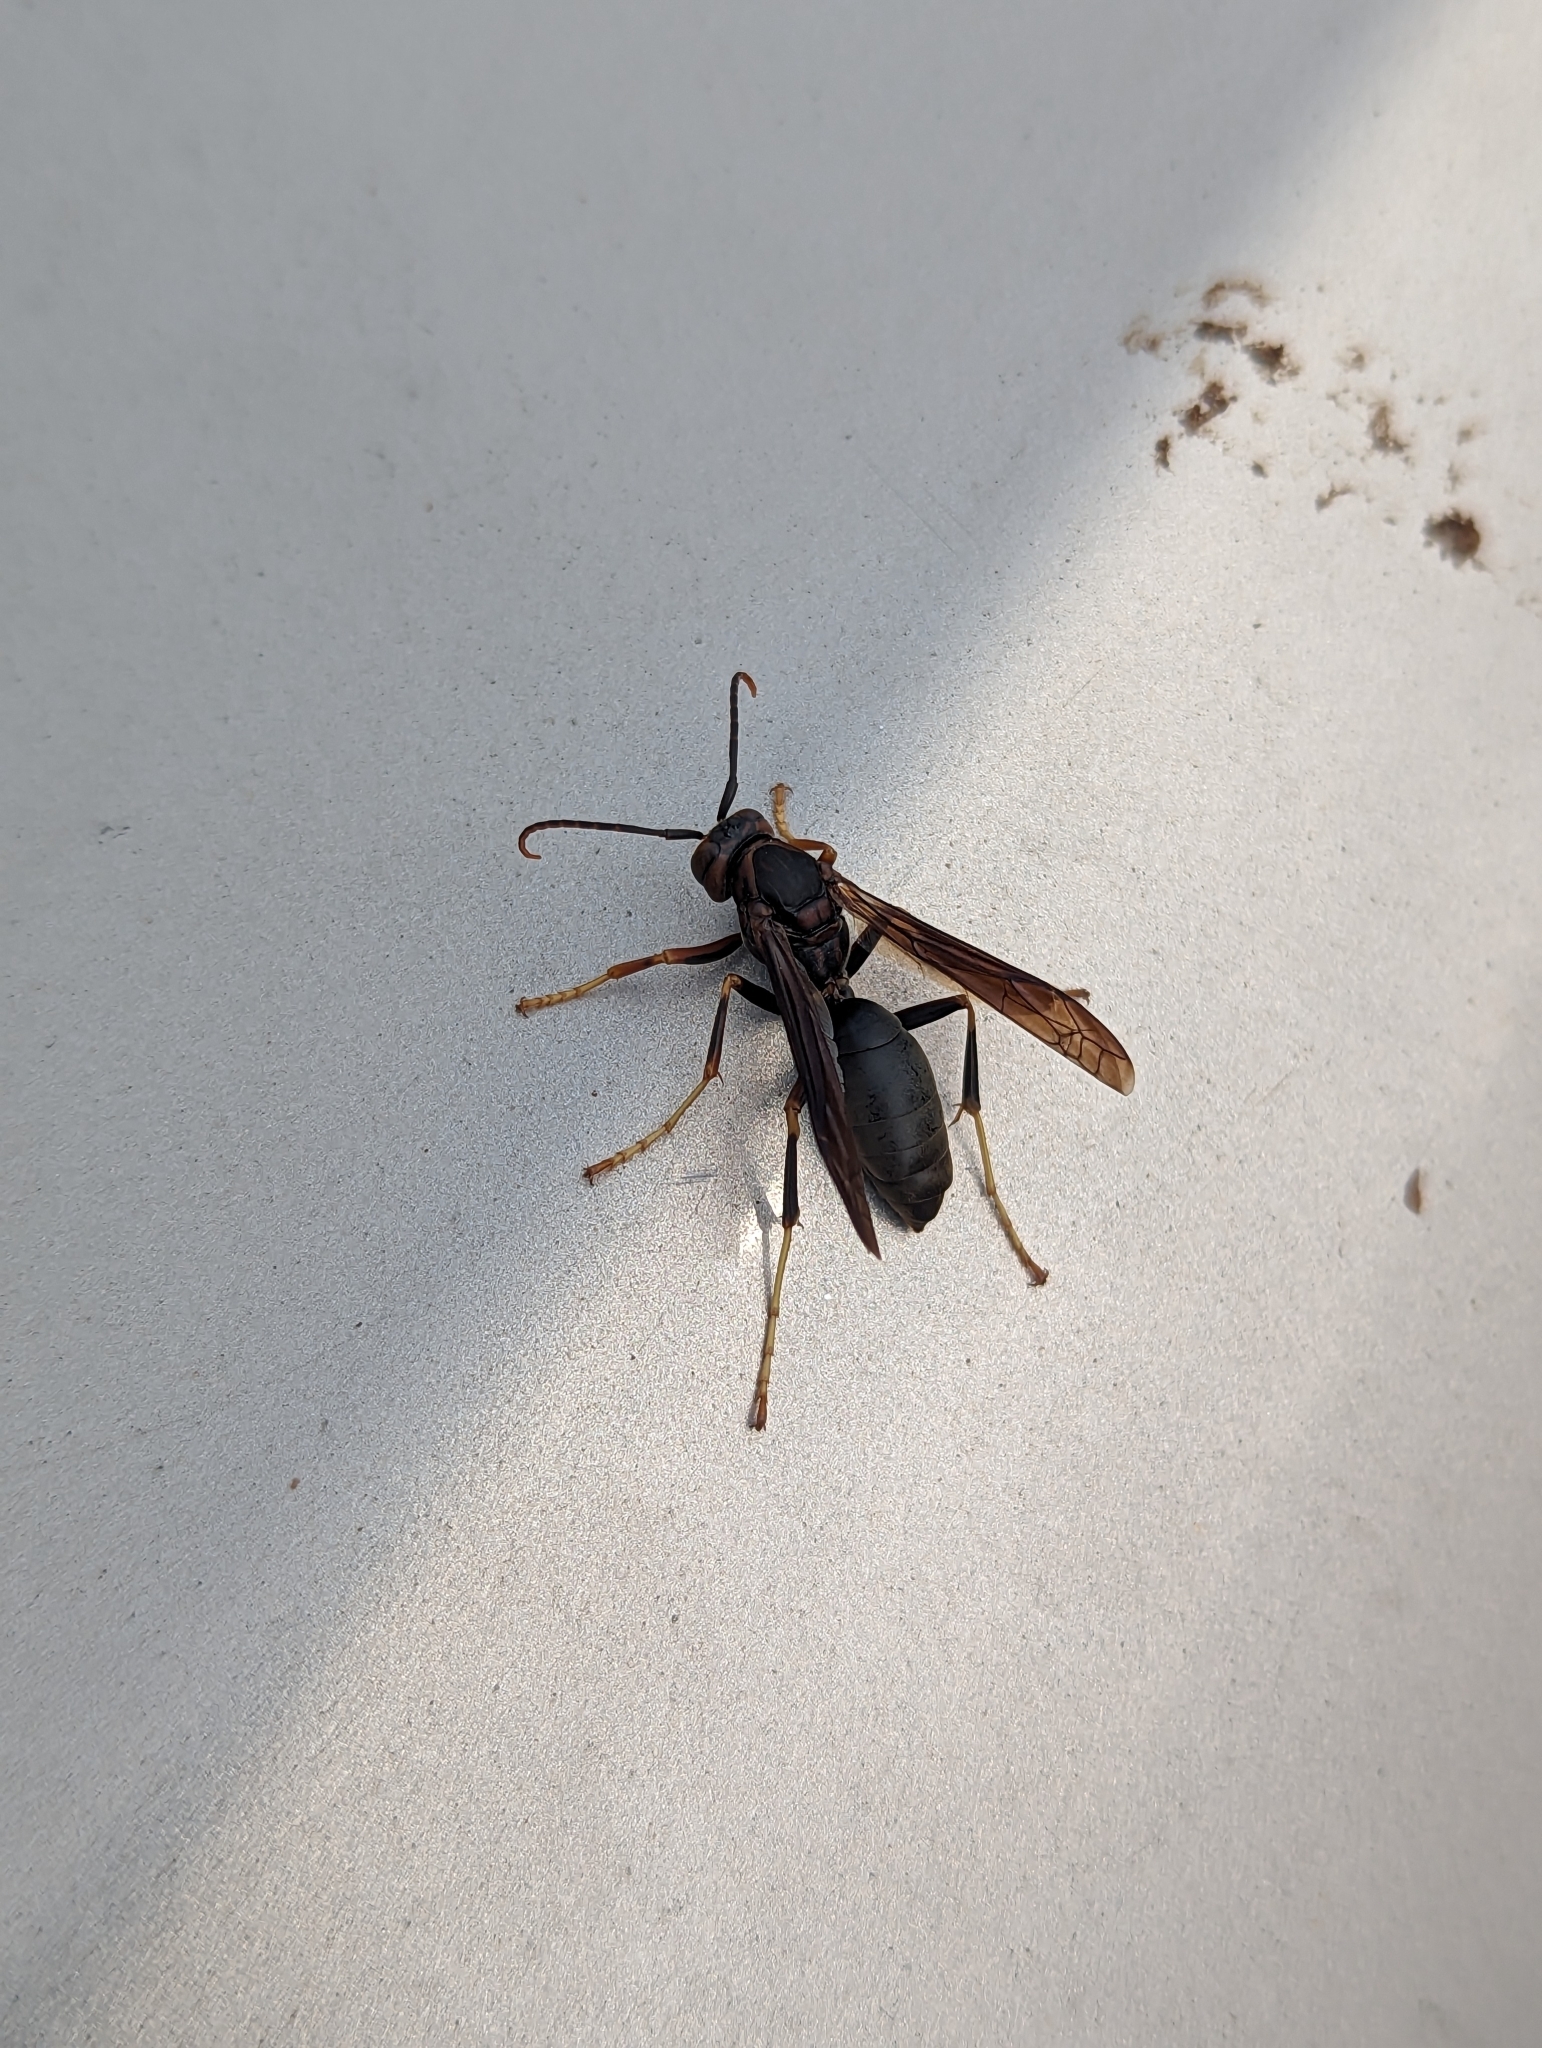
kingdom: Animalia
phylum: Arthropoda
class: Insecta
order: Hymenoptera
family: Eumenidae
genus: Polistes
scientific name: Polistes metricus
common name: Metric paper wasp
